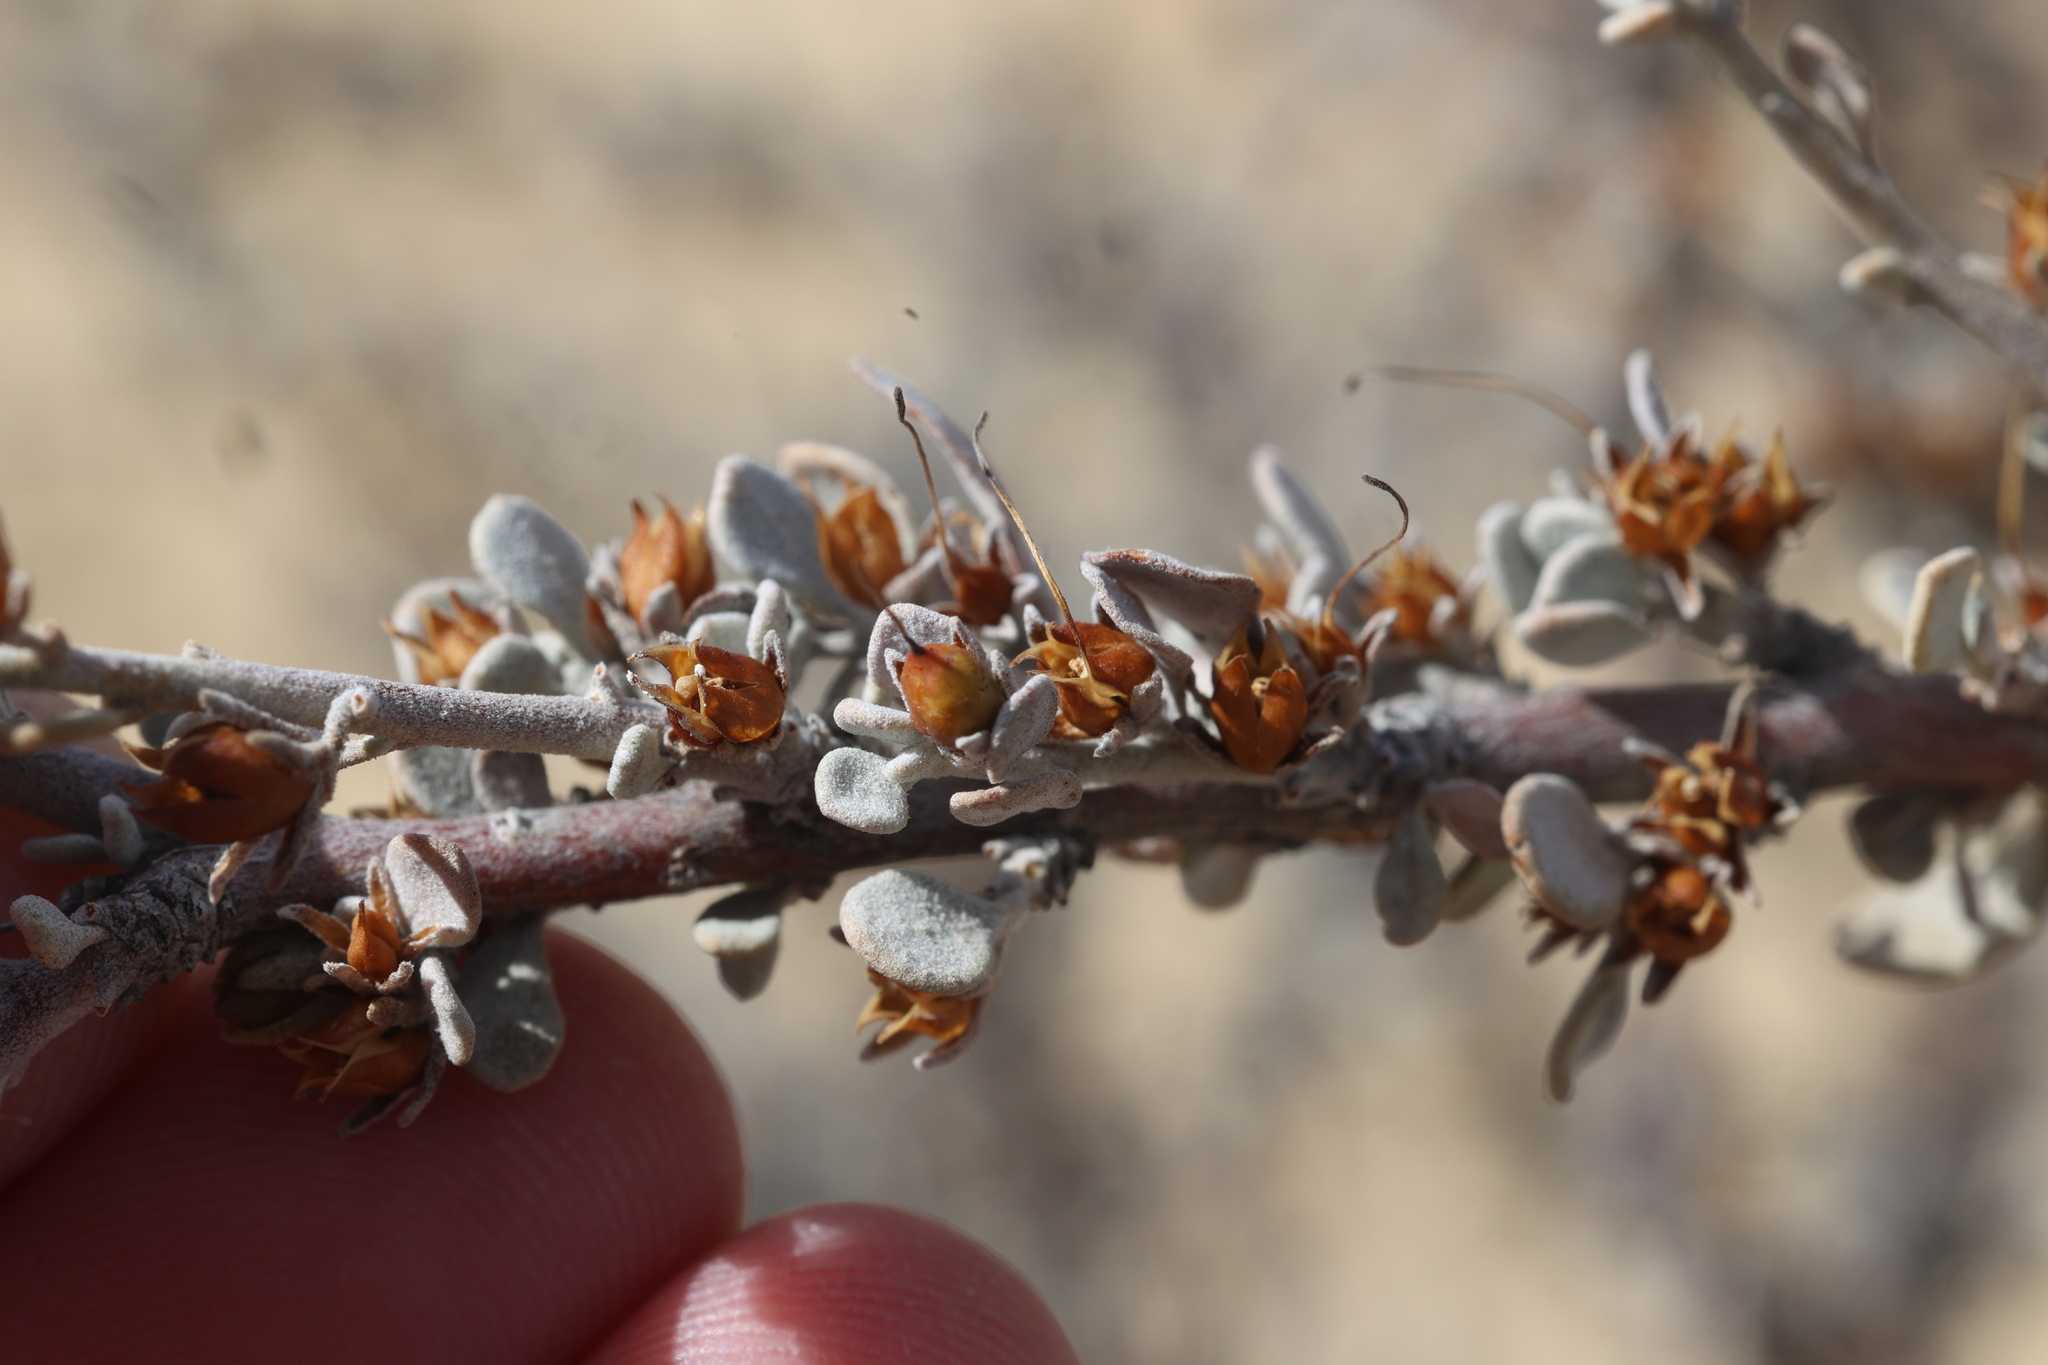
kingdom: Plantae
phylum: Tracheophyta
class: Magnoliopsida
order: Lamiales
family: Scrophulariaceae
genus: Leucophyllum
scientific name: Leucophyllum minus
